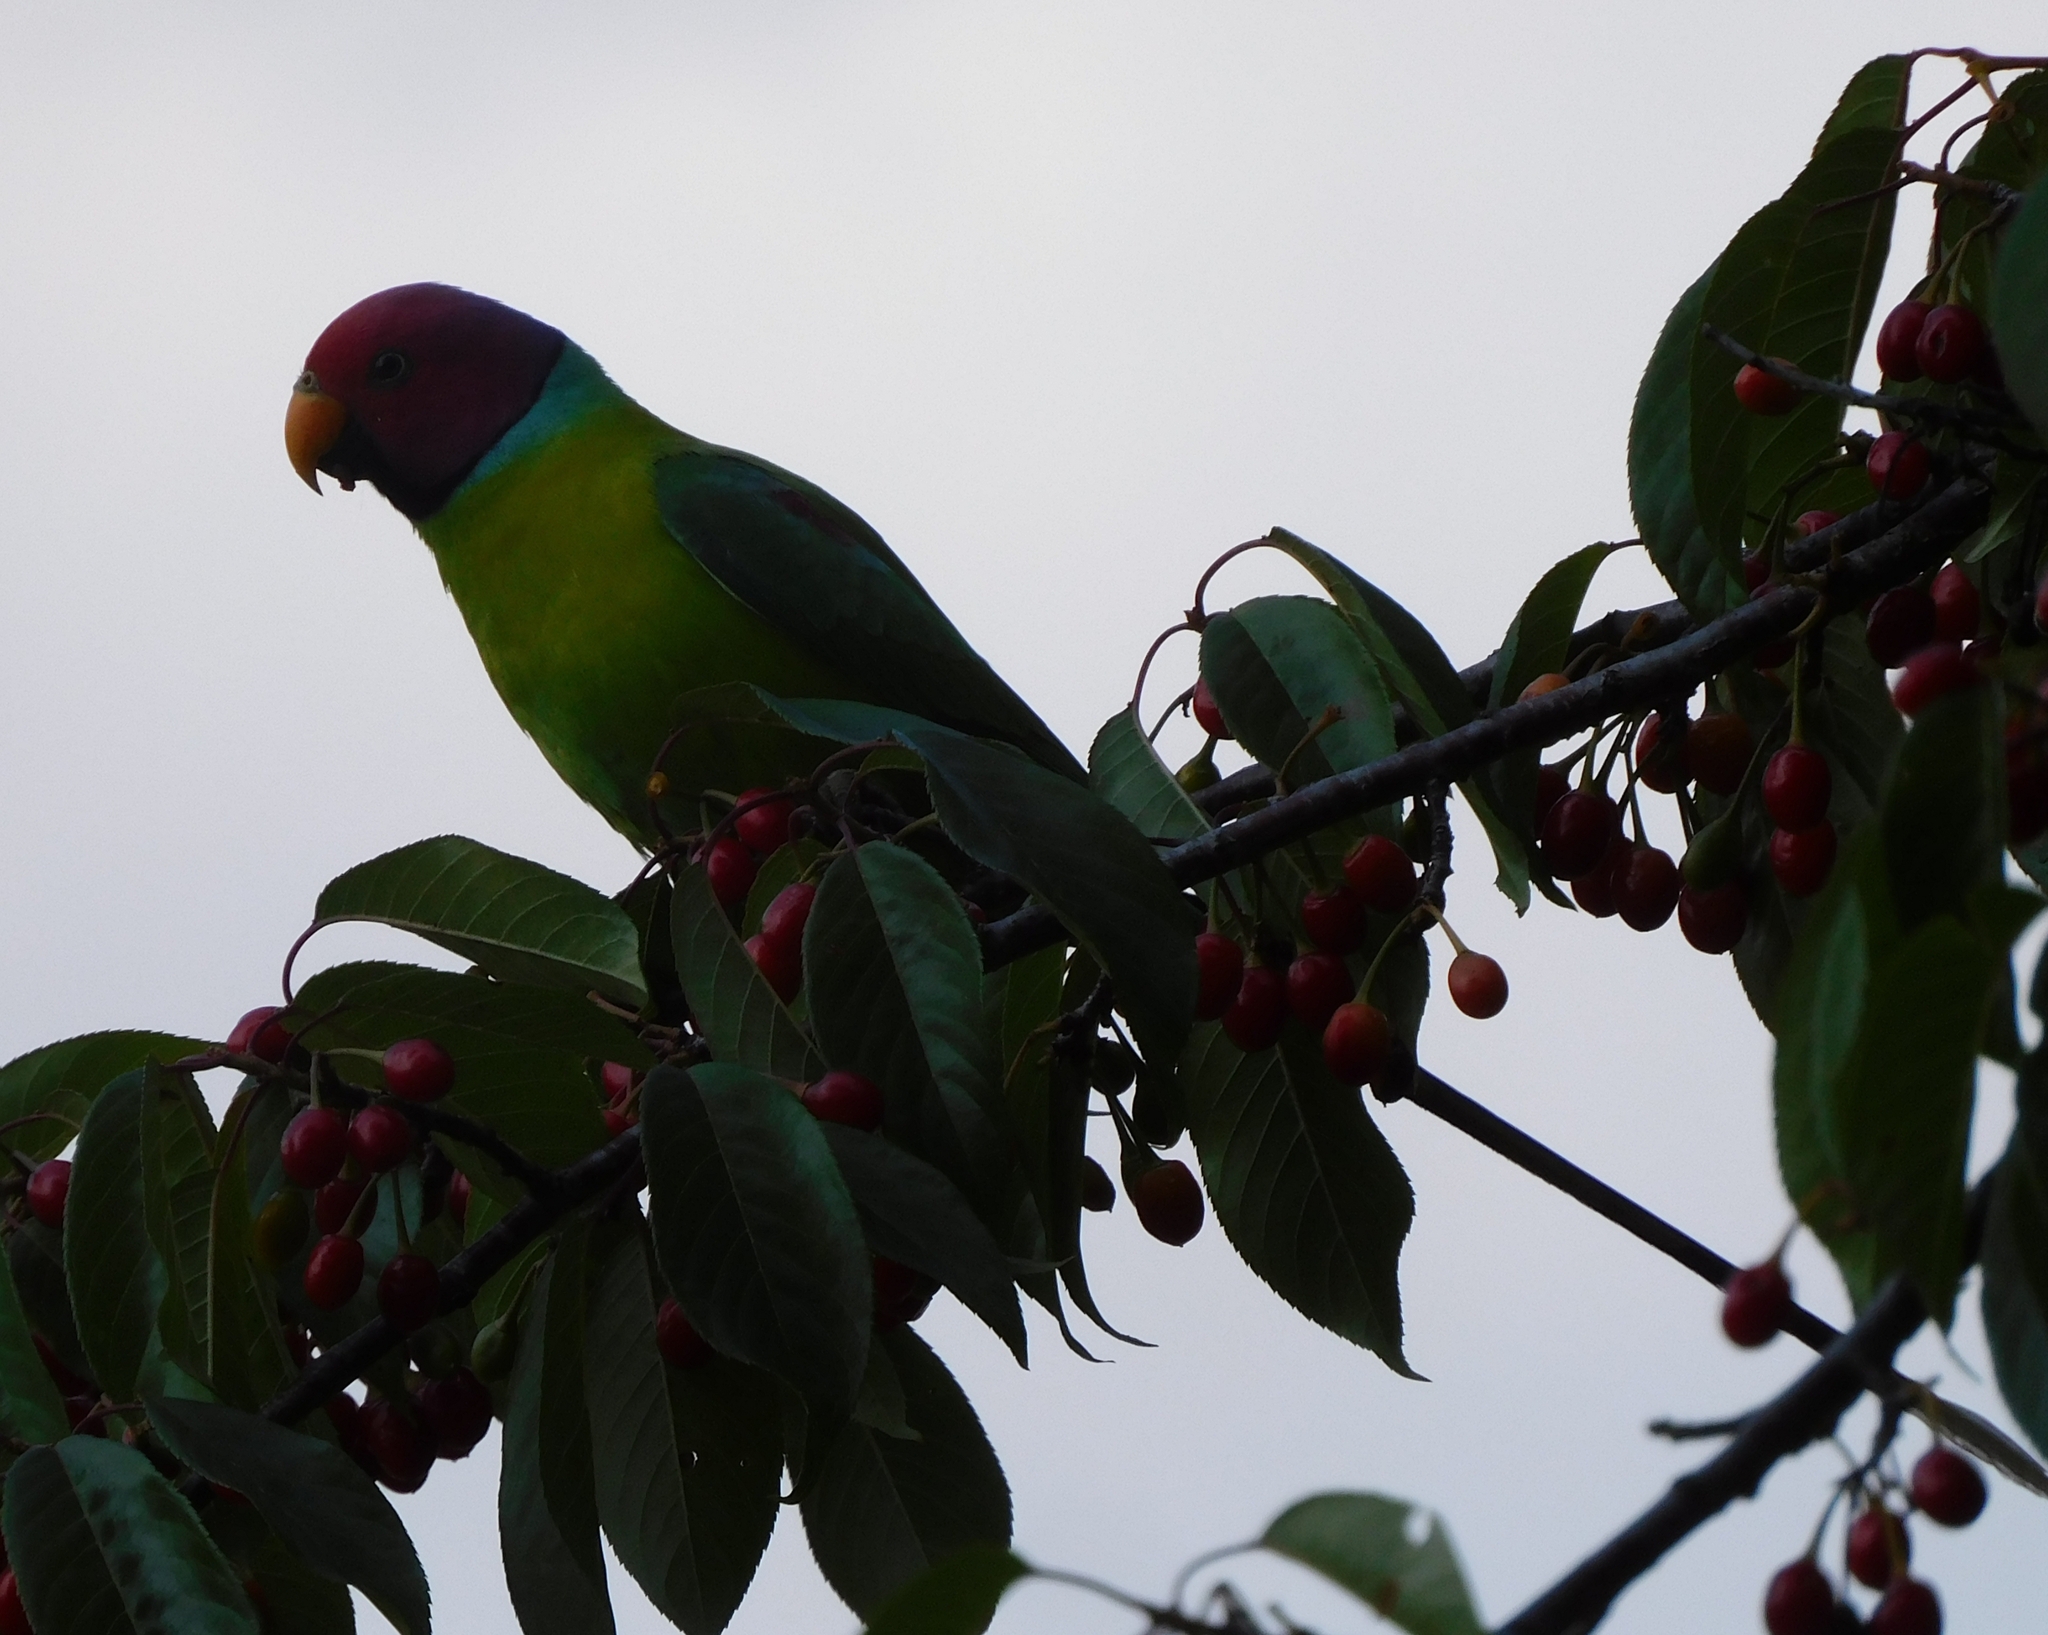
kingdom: Animalia
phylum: Chordata
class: Aves
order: Psittaciformes
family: Psittacidae
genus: Psittacula
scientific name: Psittacula cyanocephala
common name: Plum-headed parakeet
